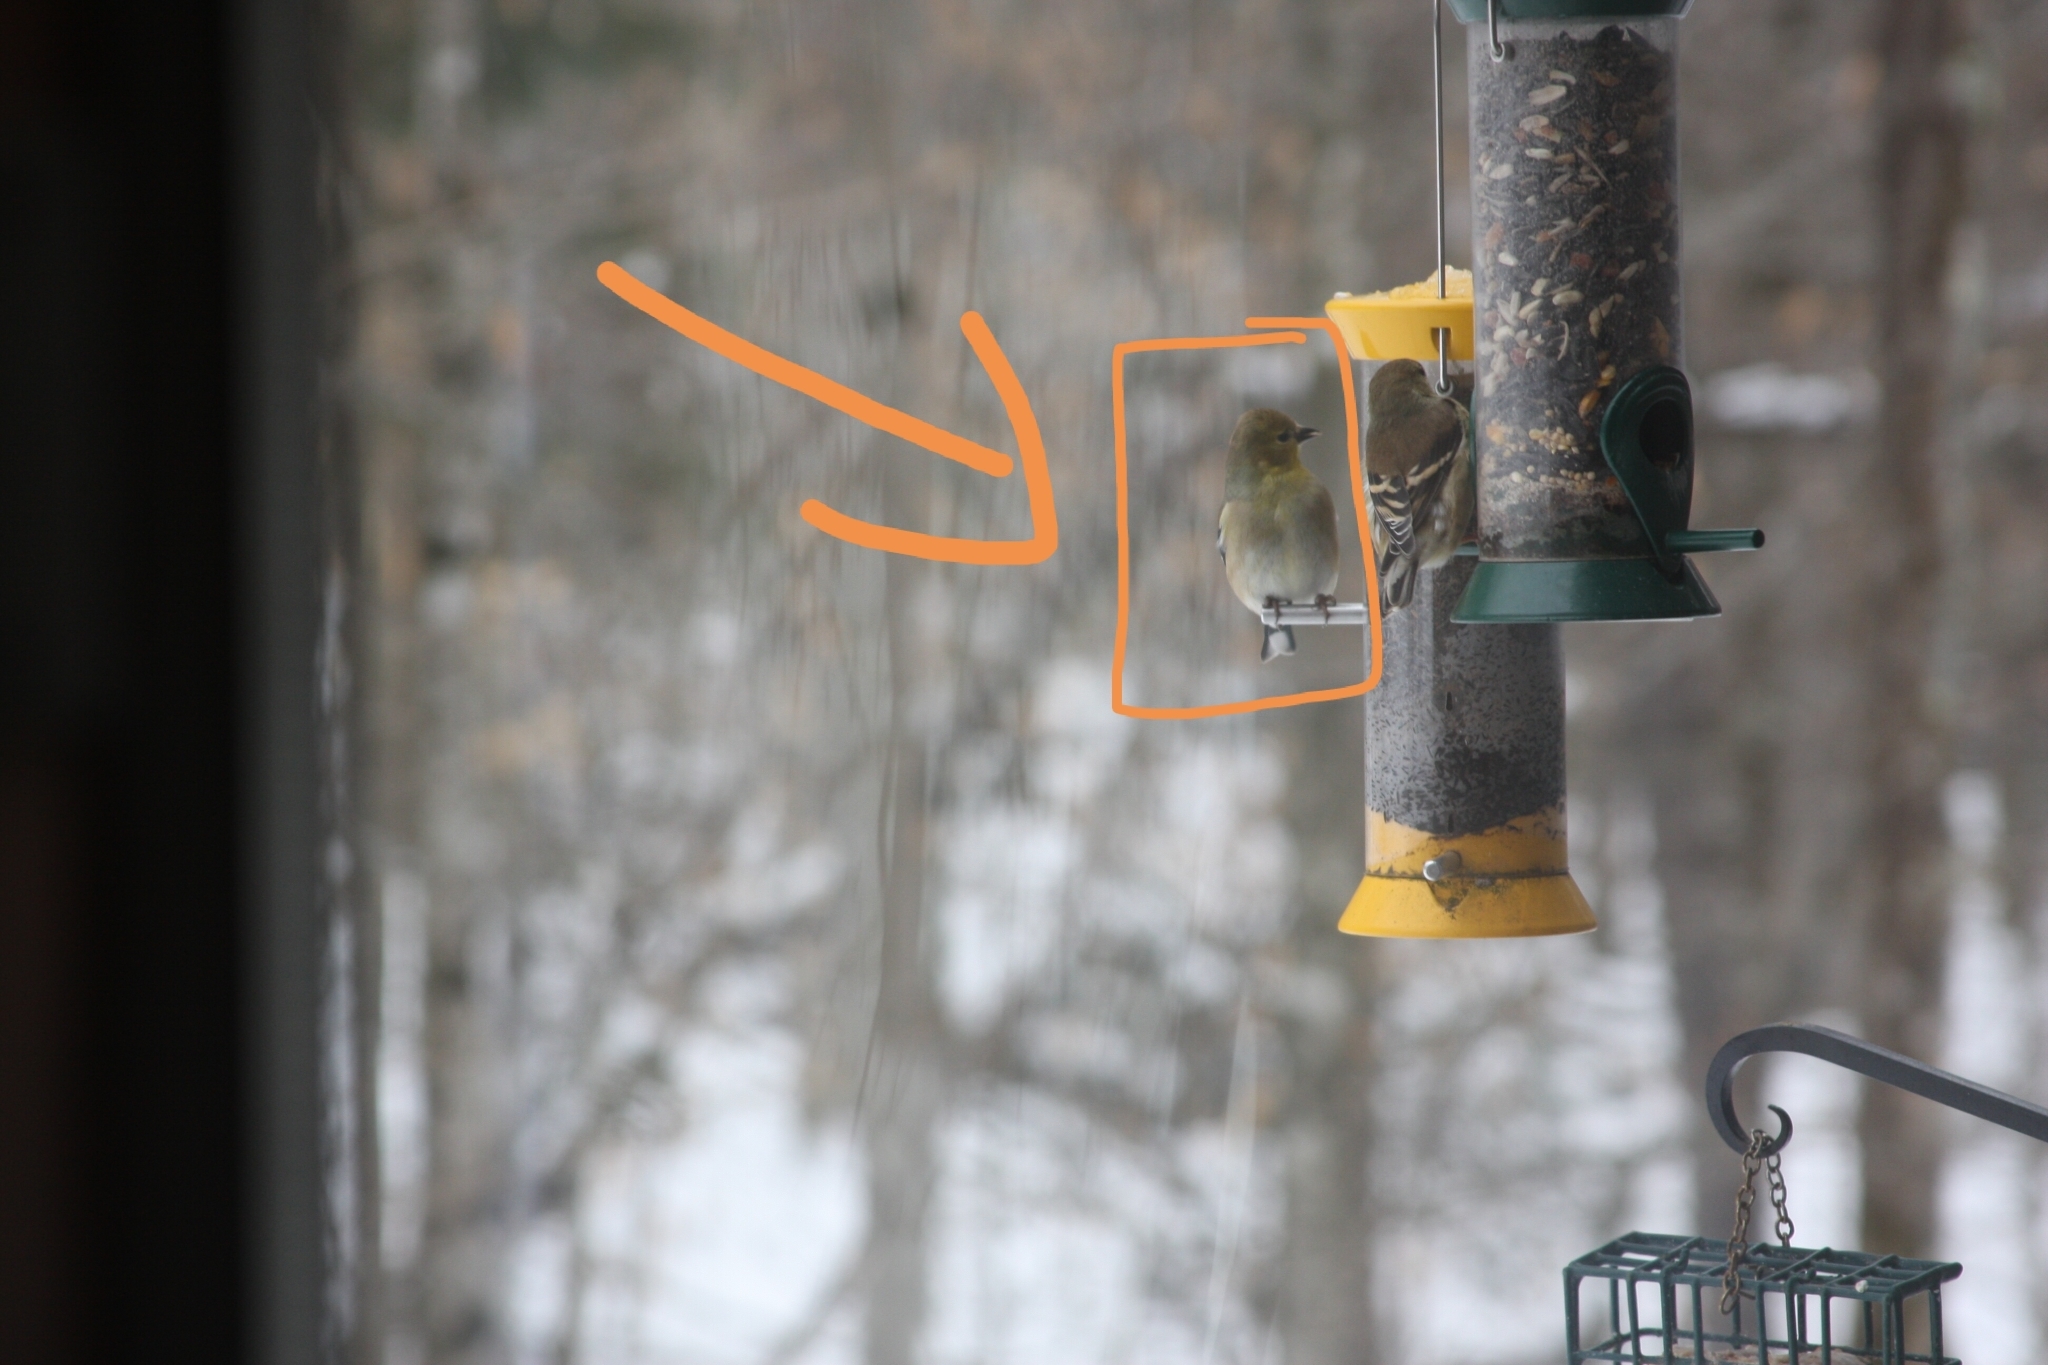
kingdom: Animalia
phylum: Chordata
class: Aves
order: Passeriformes
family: Fringillidae
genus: Spinus
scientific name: Spinus tristis
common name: American goldfinch
